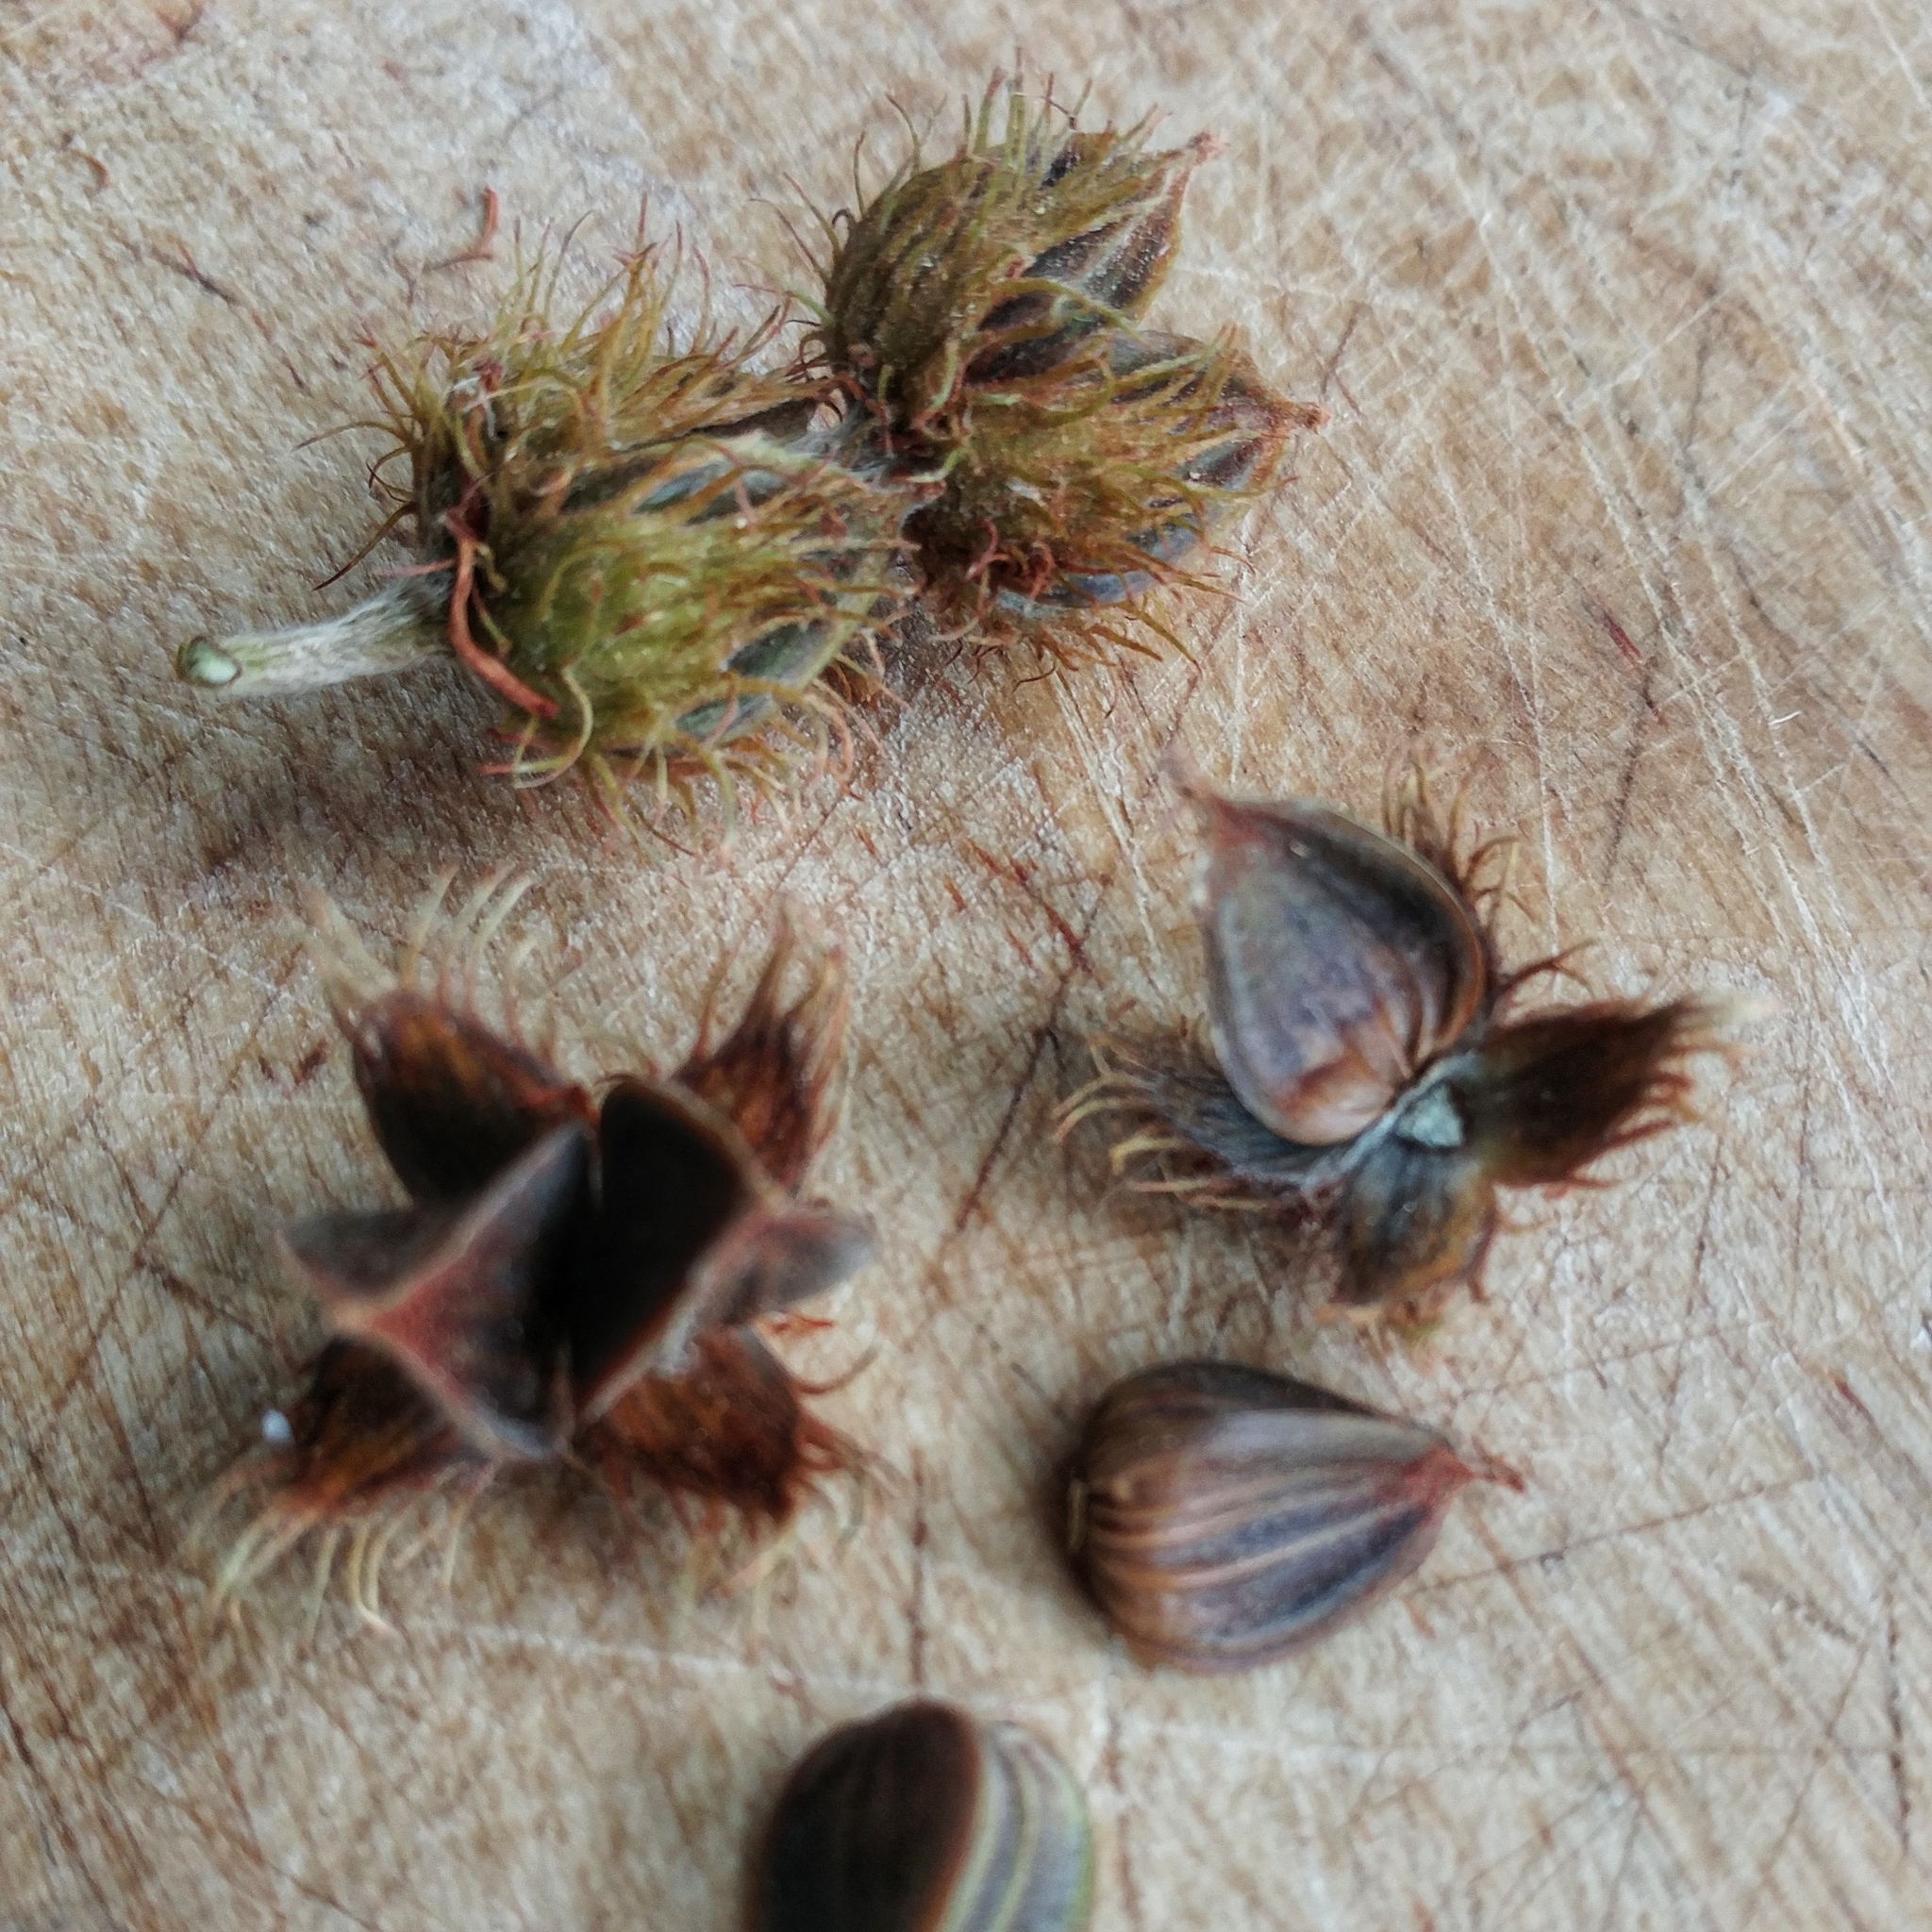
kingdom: Plantae
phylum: Tracheophyta
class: Magnoliopsida
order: Fagales
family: Fagaceae
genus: Fagus
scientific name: Fagus grandifolia
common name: American beech
